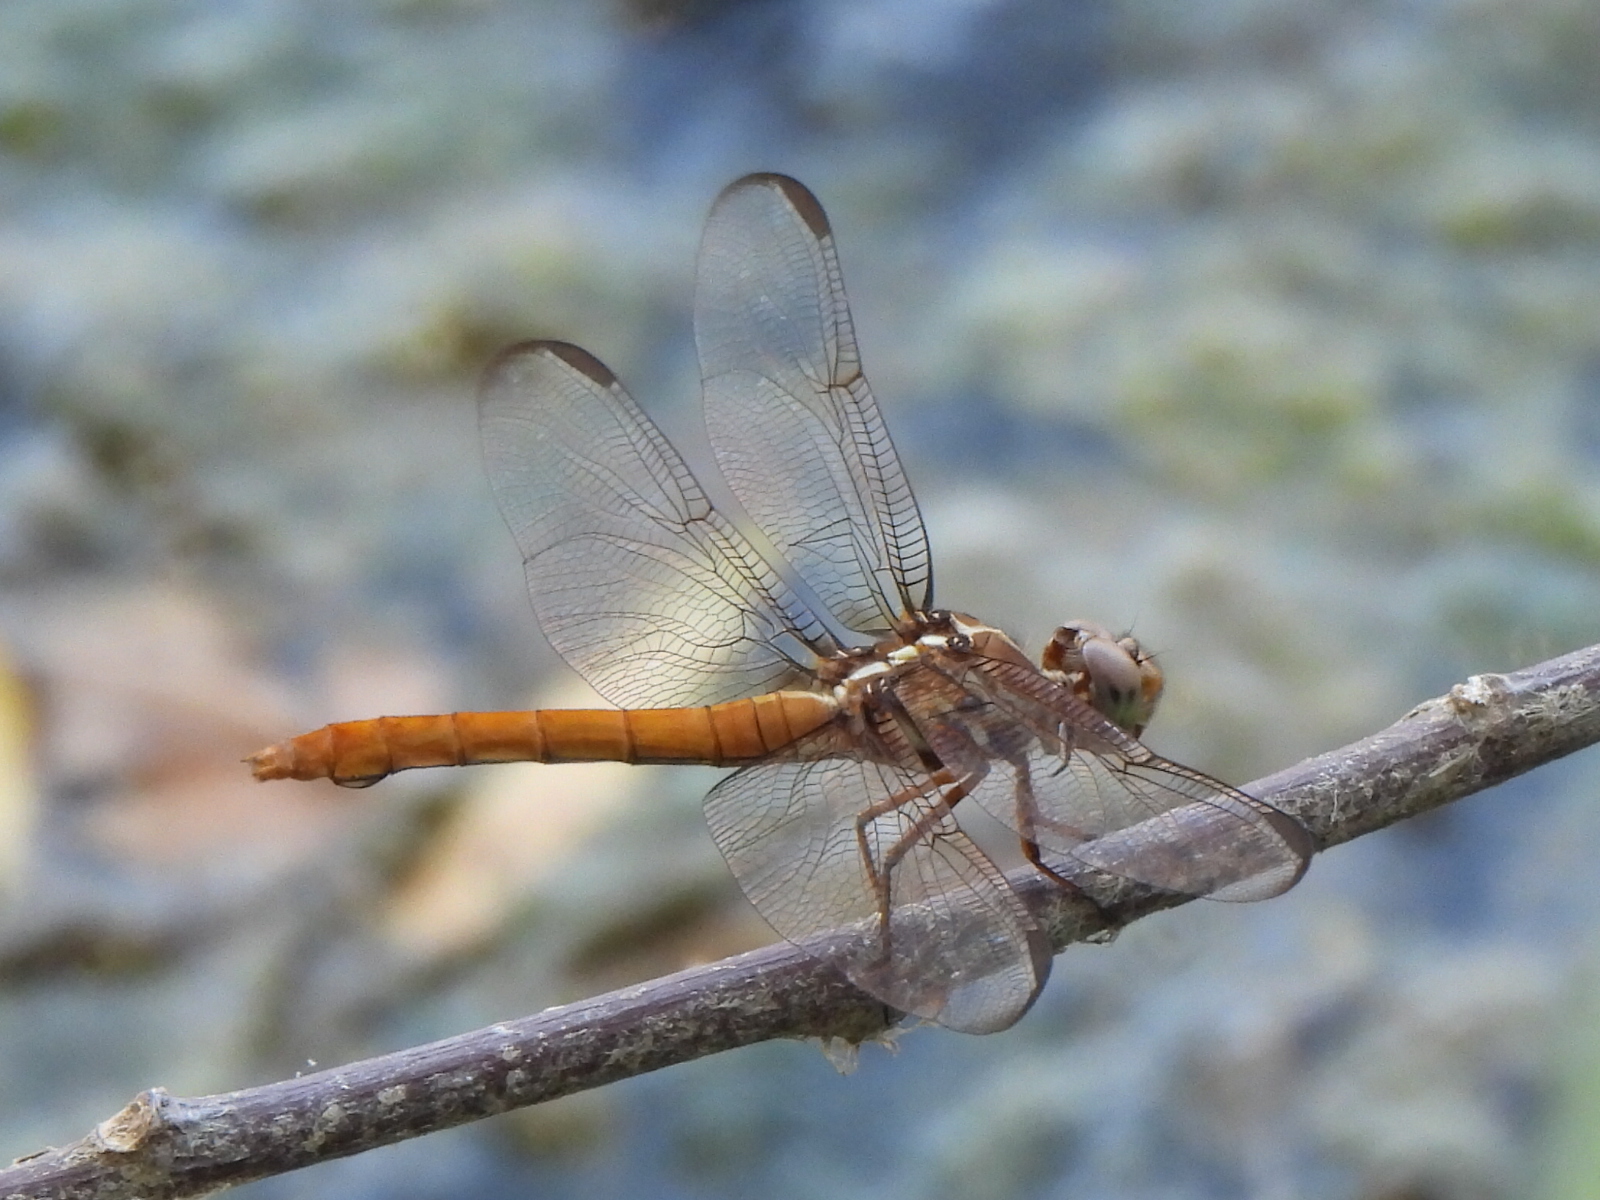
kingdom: Animalia
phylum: Arthropoda
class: Insecta
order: Odonata
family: Libellulidae
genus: Orthemis
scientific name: Orthemis ferruginea
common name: Roseate skimmer
